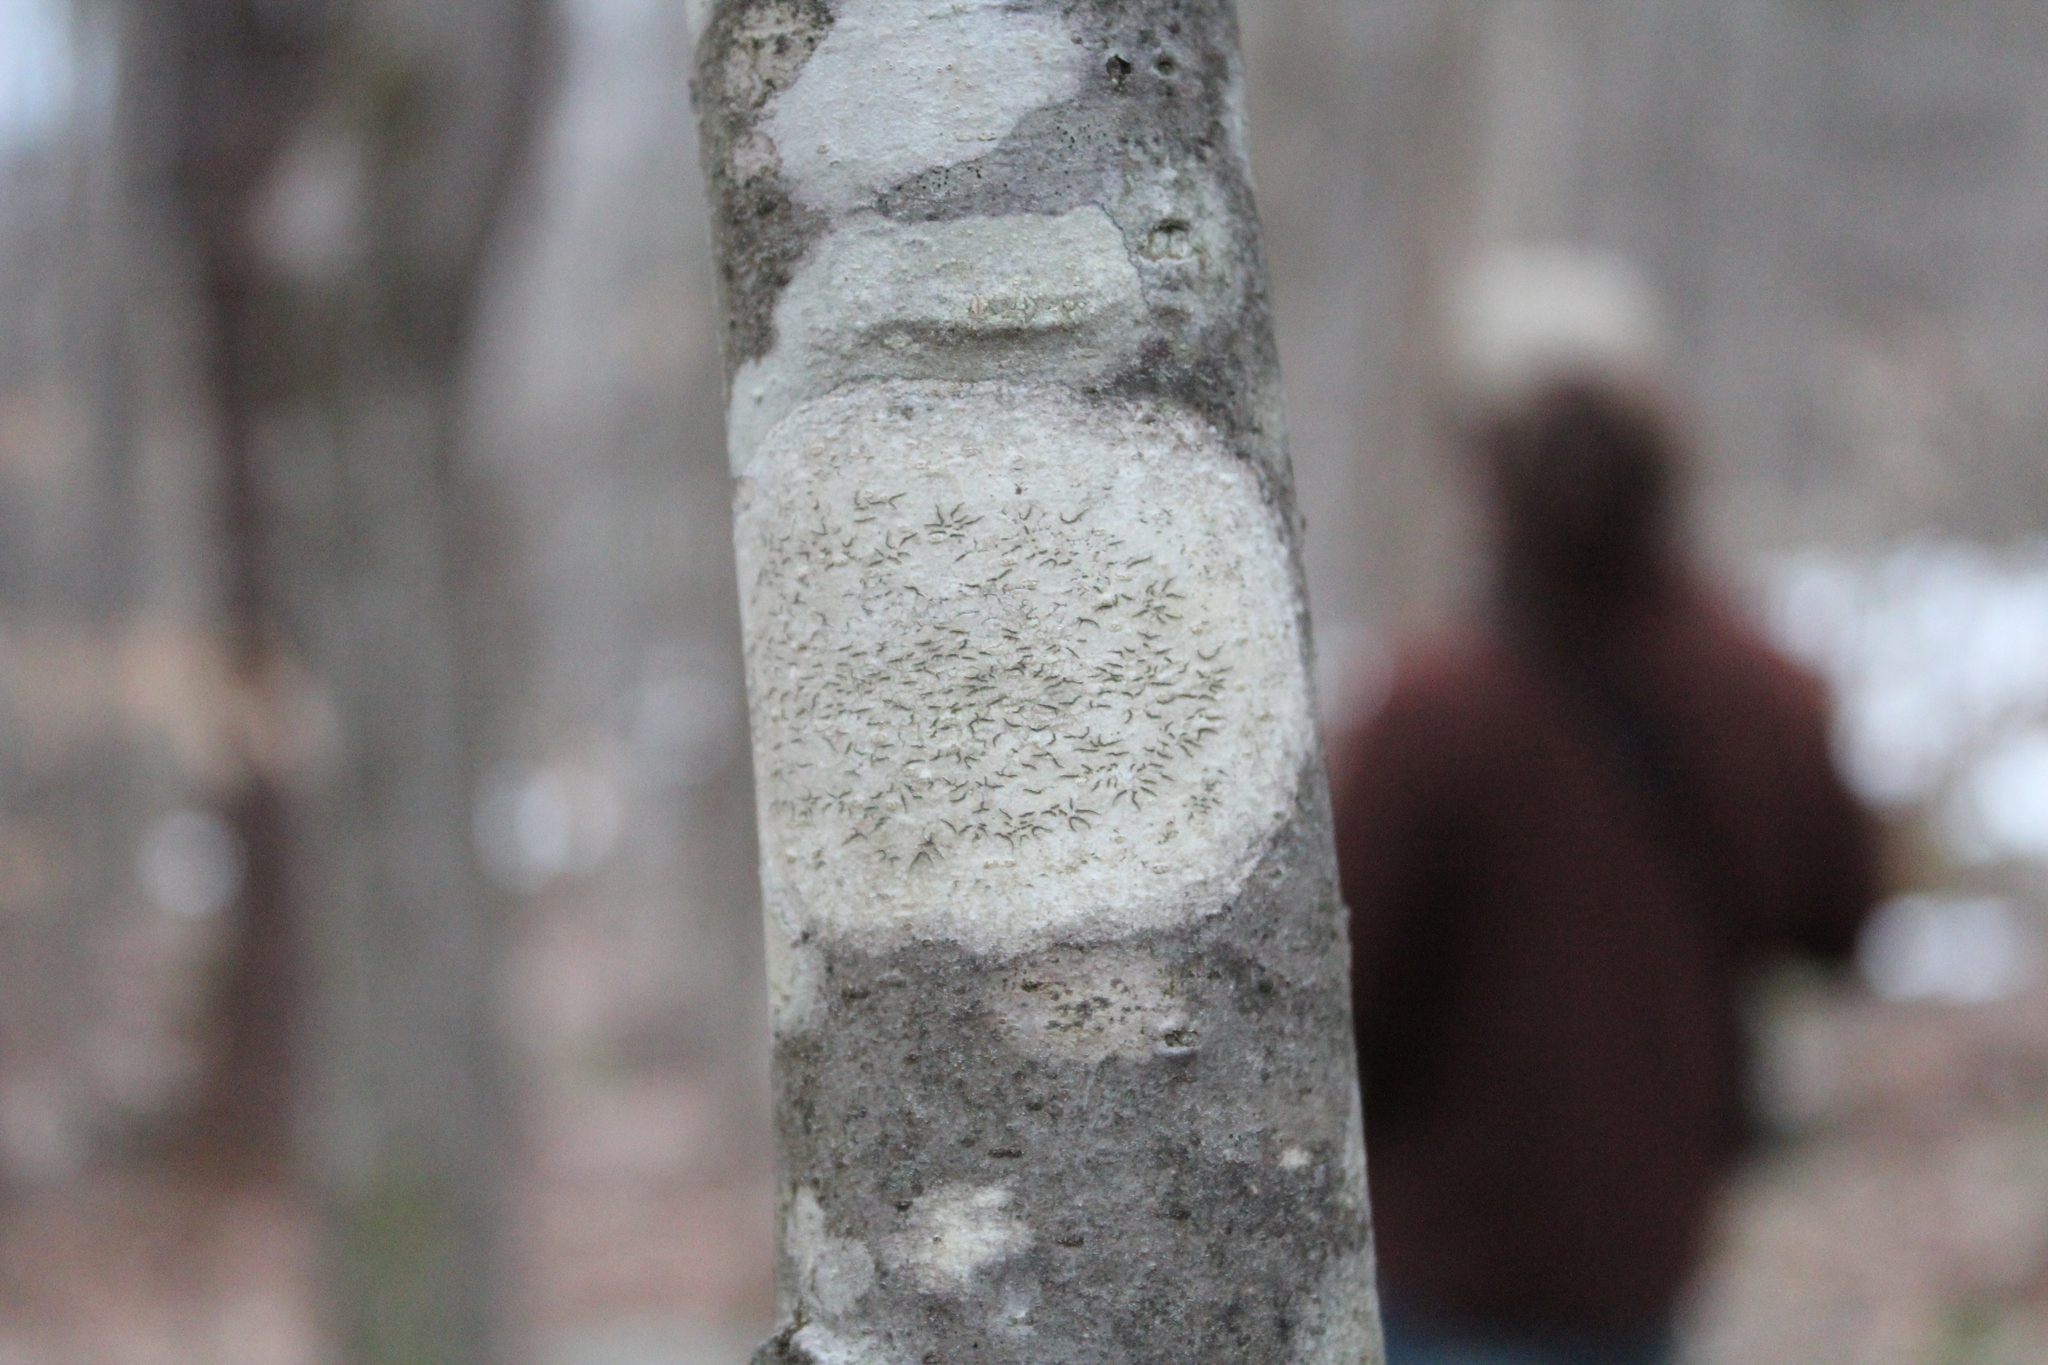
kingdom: Fungi
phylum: Ascomycota
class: Lecanoromycetes
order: Ostropales
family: Graphidaceae
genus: Graphis
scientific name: Graphis scripta
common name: Script lichen
